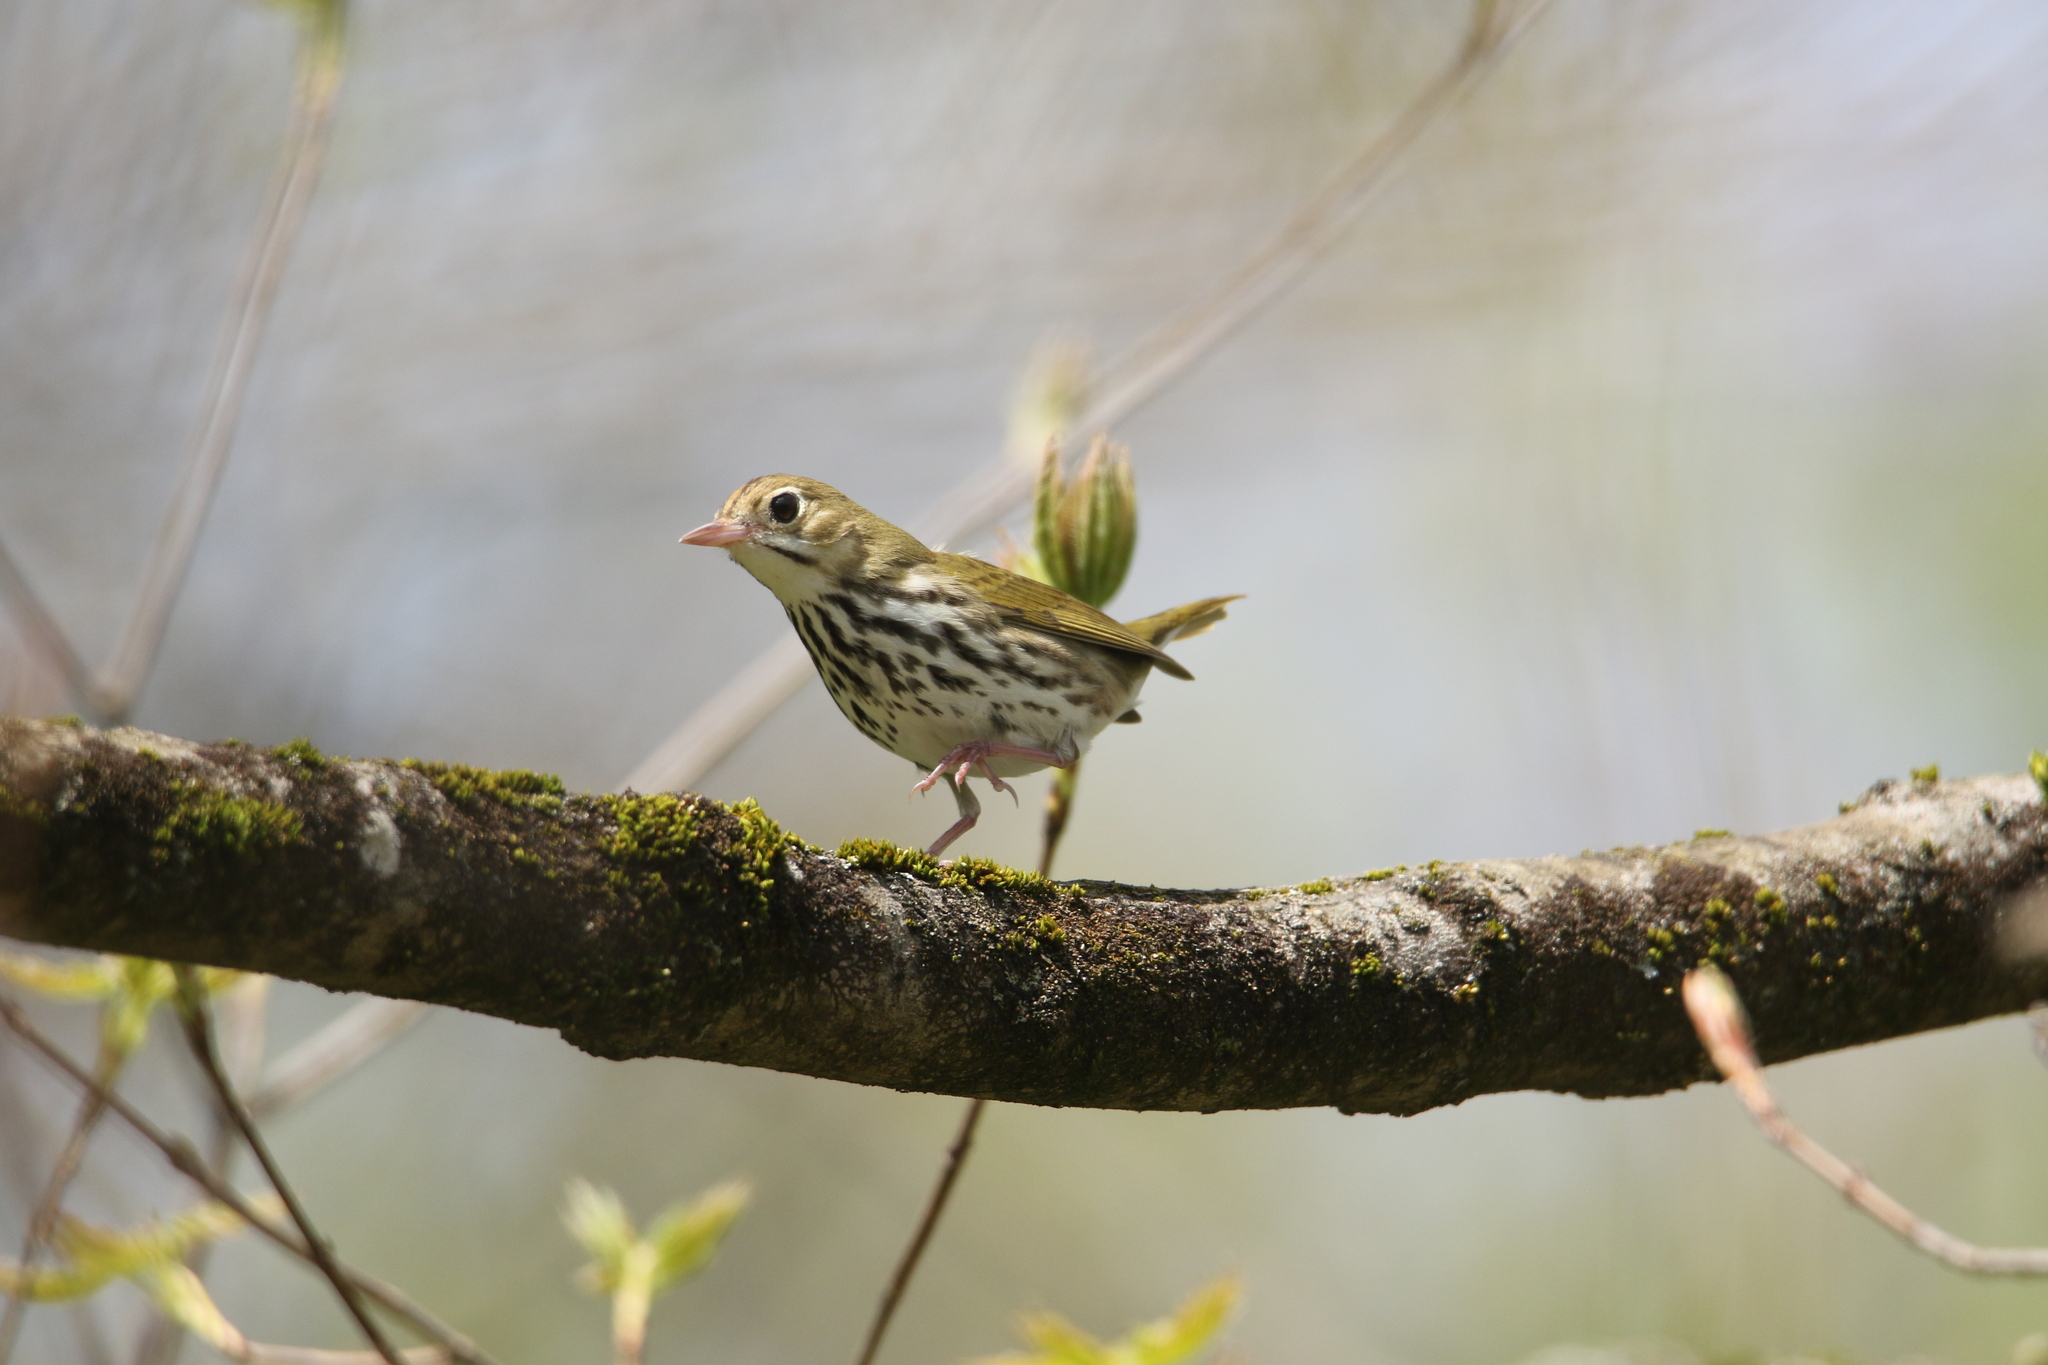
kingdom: Animalia
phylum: Chordata
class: Aves
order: Passeriformes
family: Parulidae
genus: Seiurus
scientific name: Seiurus aurocapilla
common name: Ovenbird
